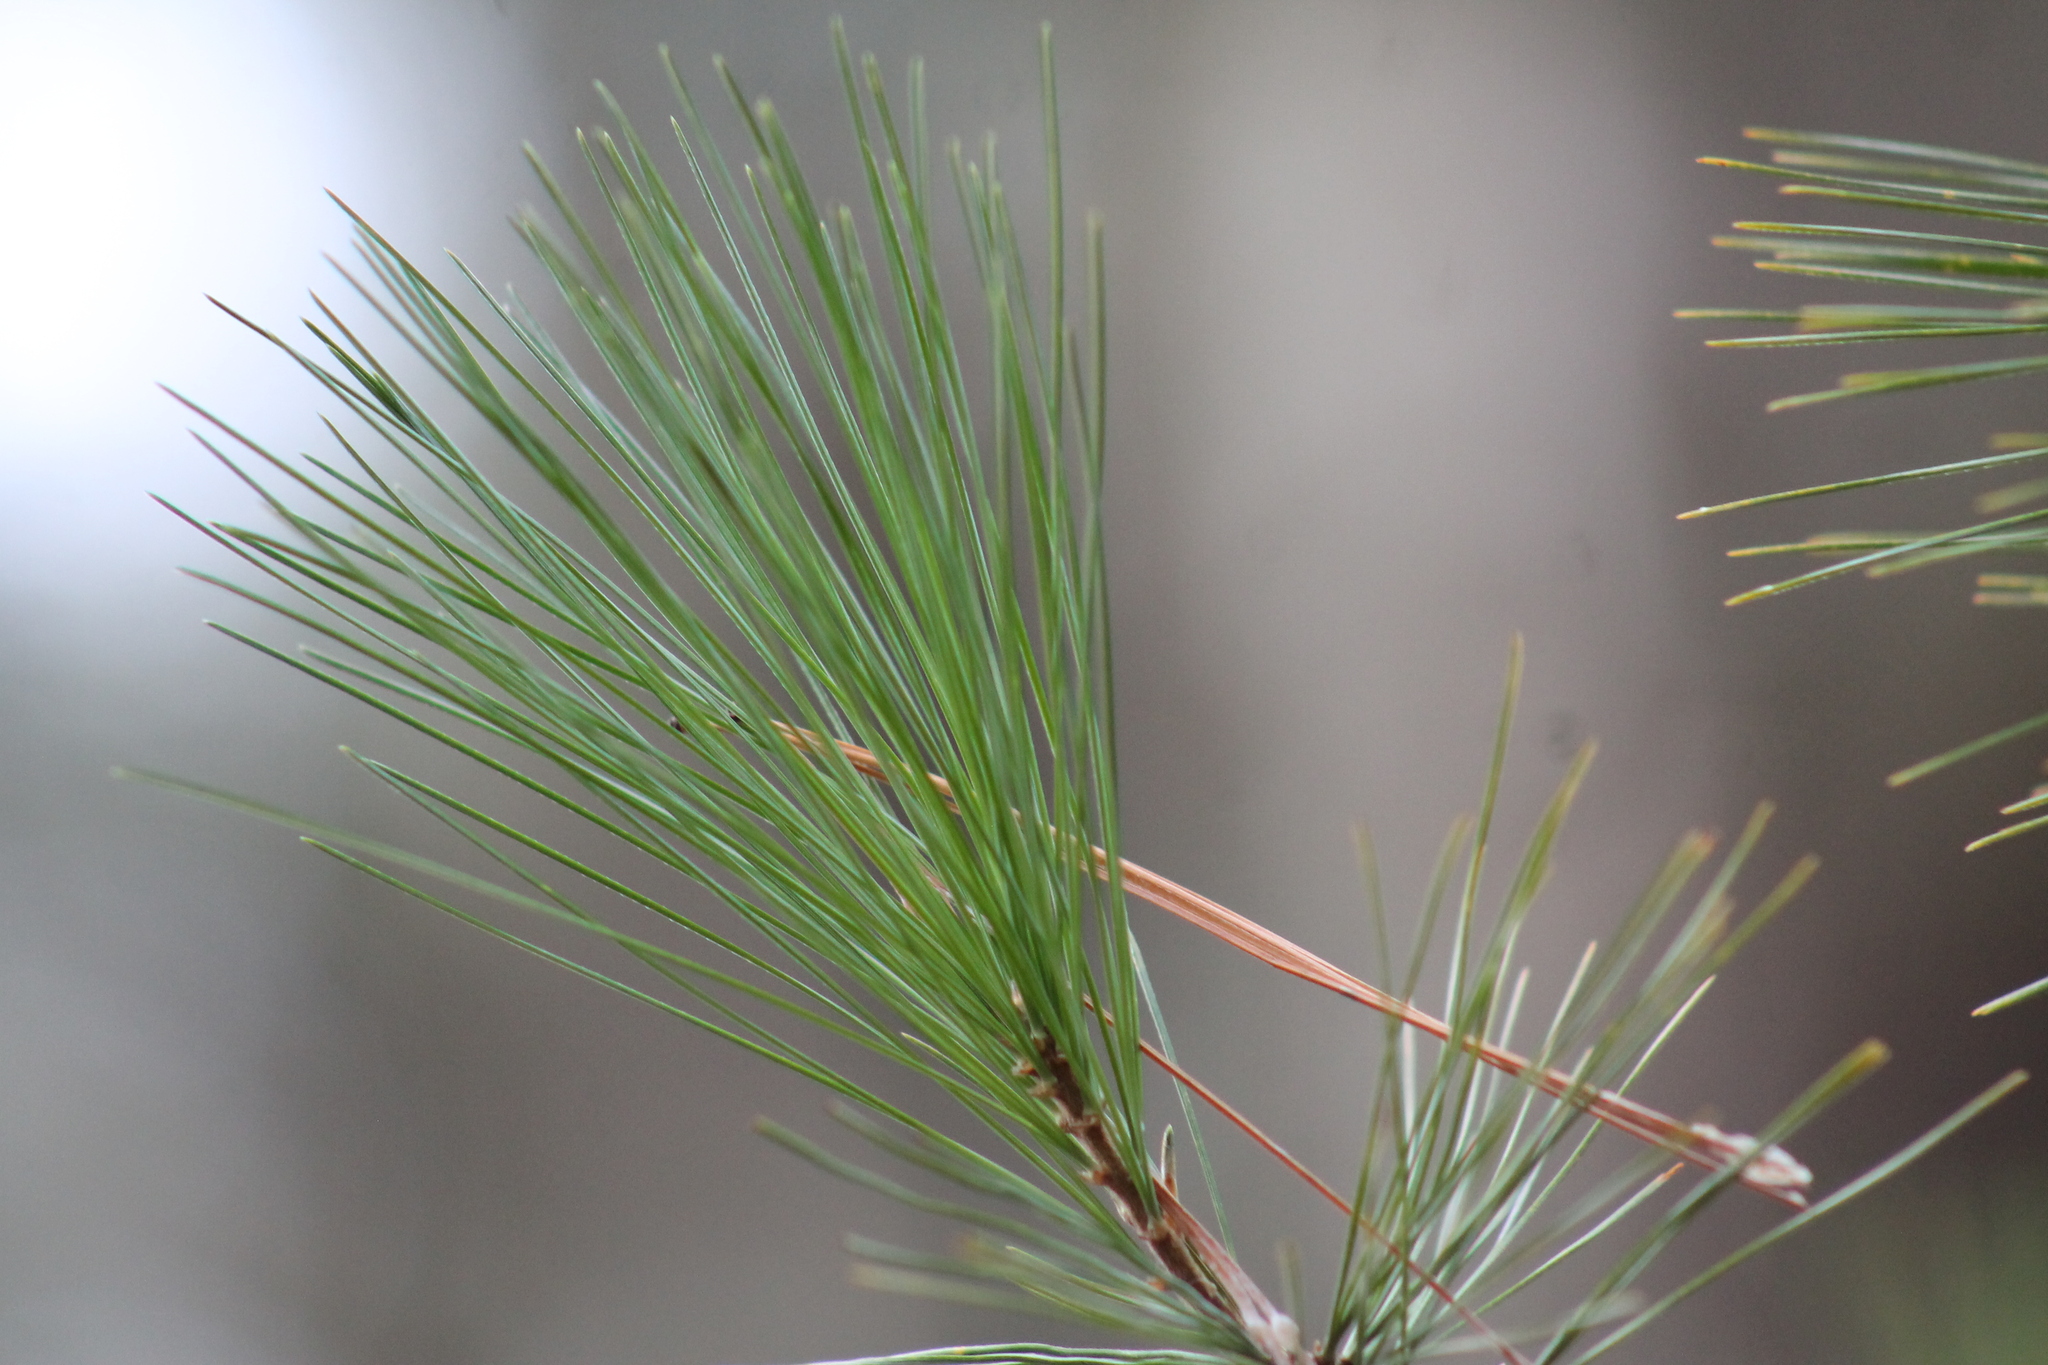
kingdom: Plantae
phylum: Tracheophyta
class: Pinopsida
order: Pinales
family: Pinaceae
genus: Pinus
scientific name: Pinus strobus
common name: Weymouth pine
